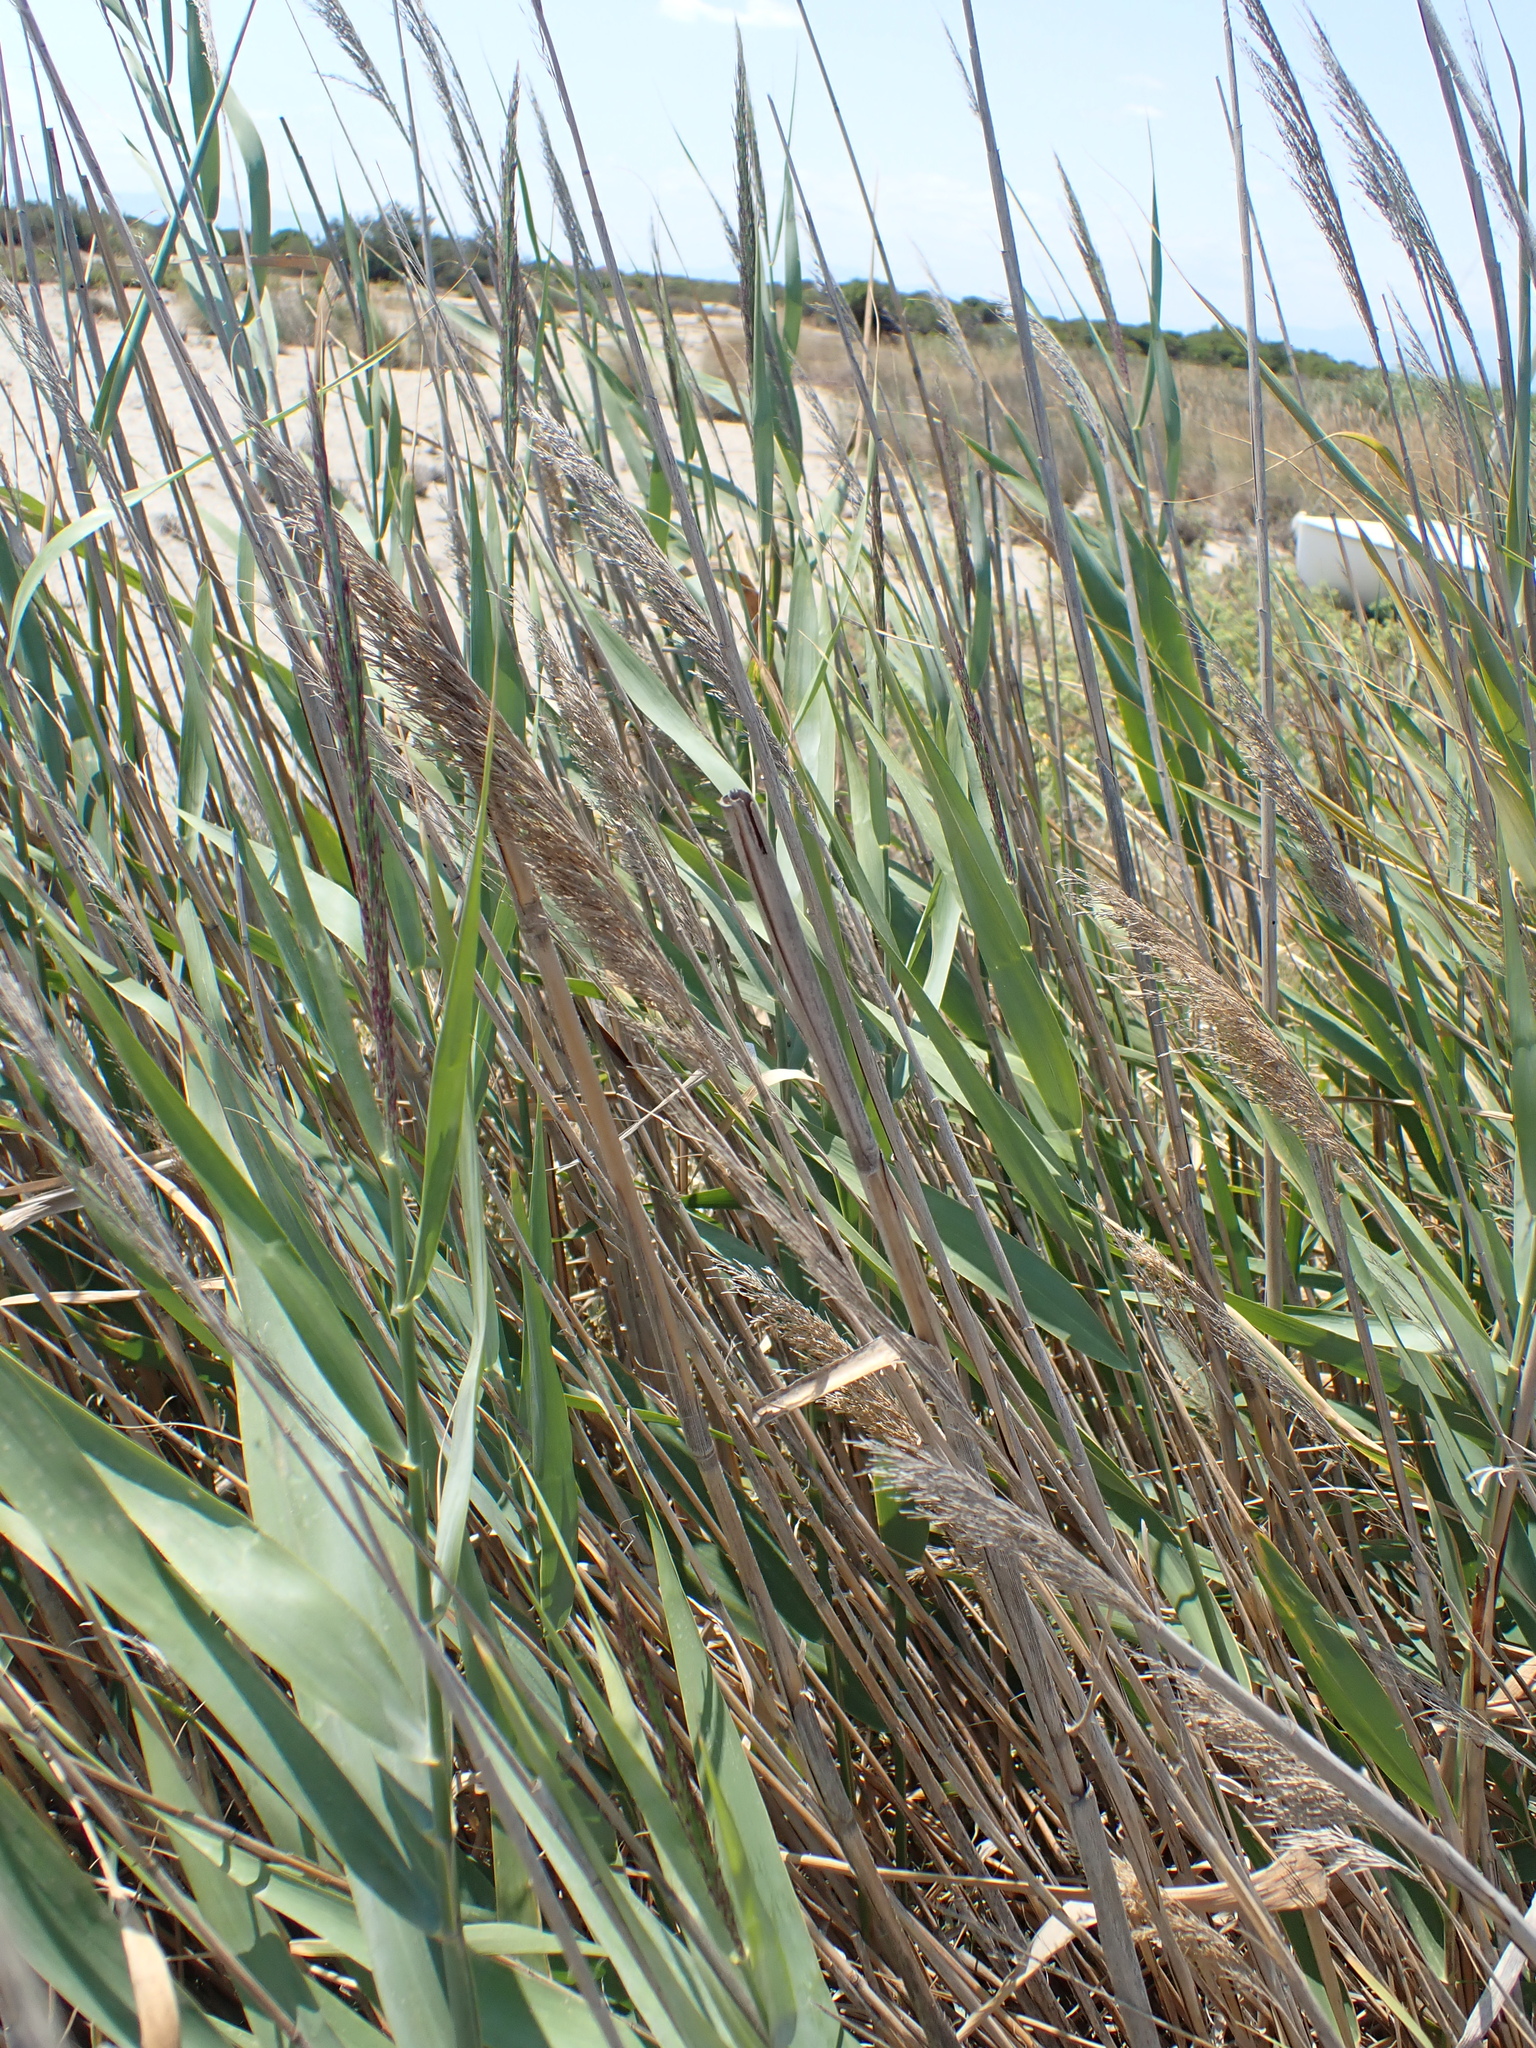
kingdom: Plantae
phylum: Tracheophyta
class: Liliopsida
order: Poales
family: Poaceae
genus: Phragmites
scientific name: Phragmites australis
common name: Common reed
